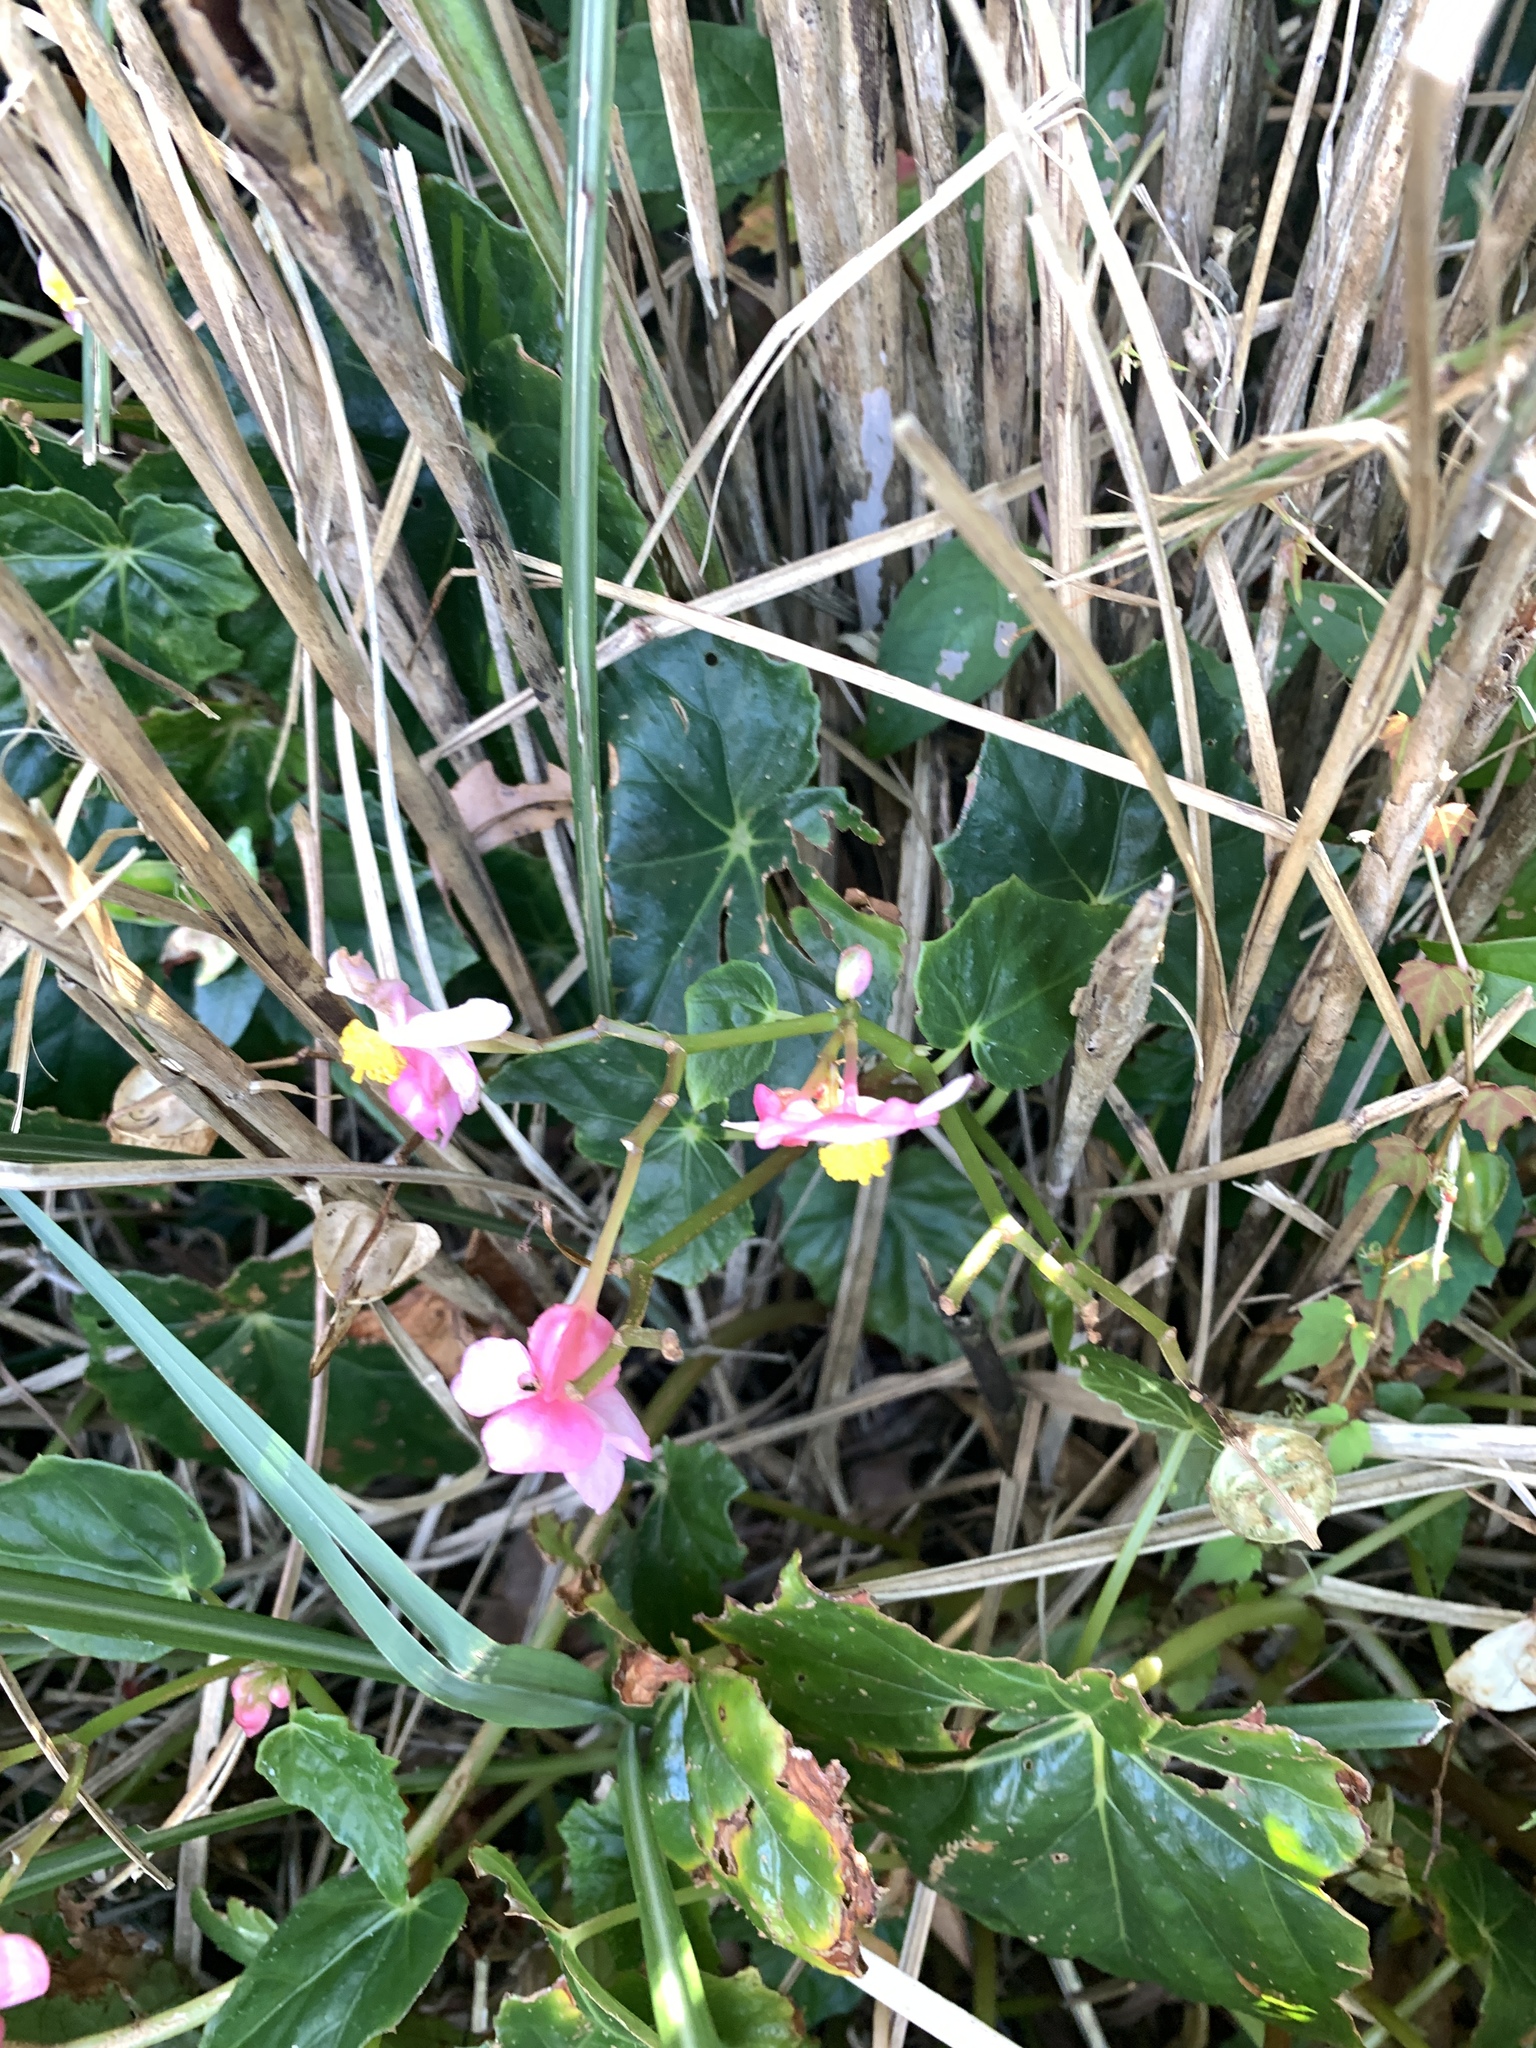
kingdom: Plantae
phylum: Tracheophyta
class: Magnoliopsida
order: Cucurbitales
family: Begoniaceae
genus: Begonia
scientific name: Begonia formosana
